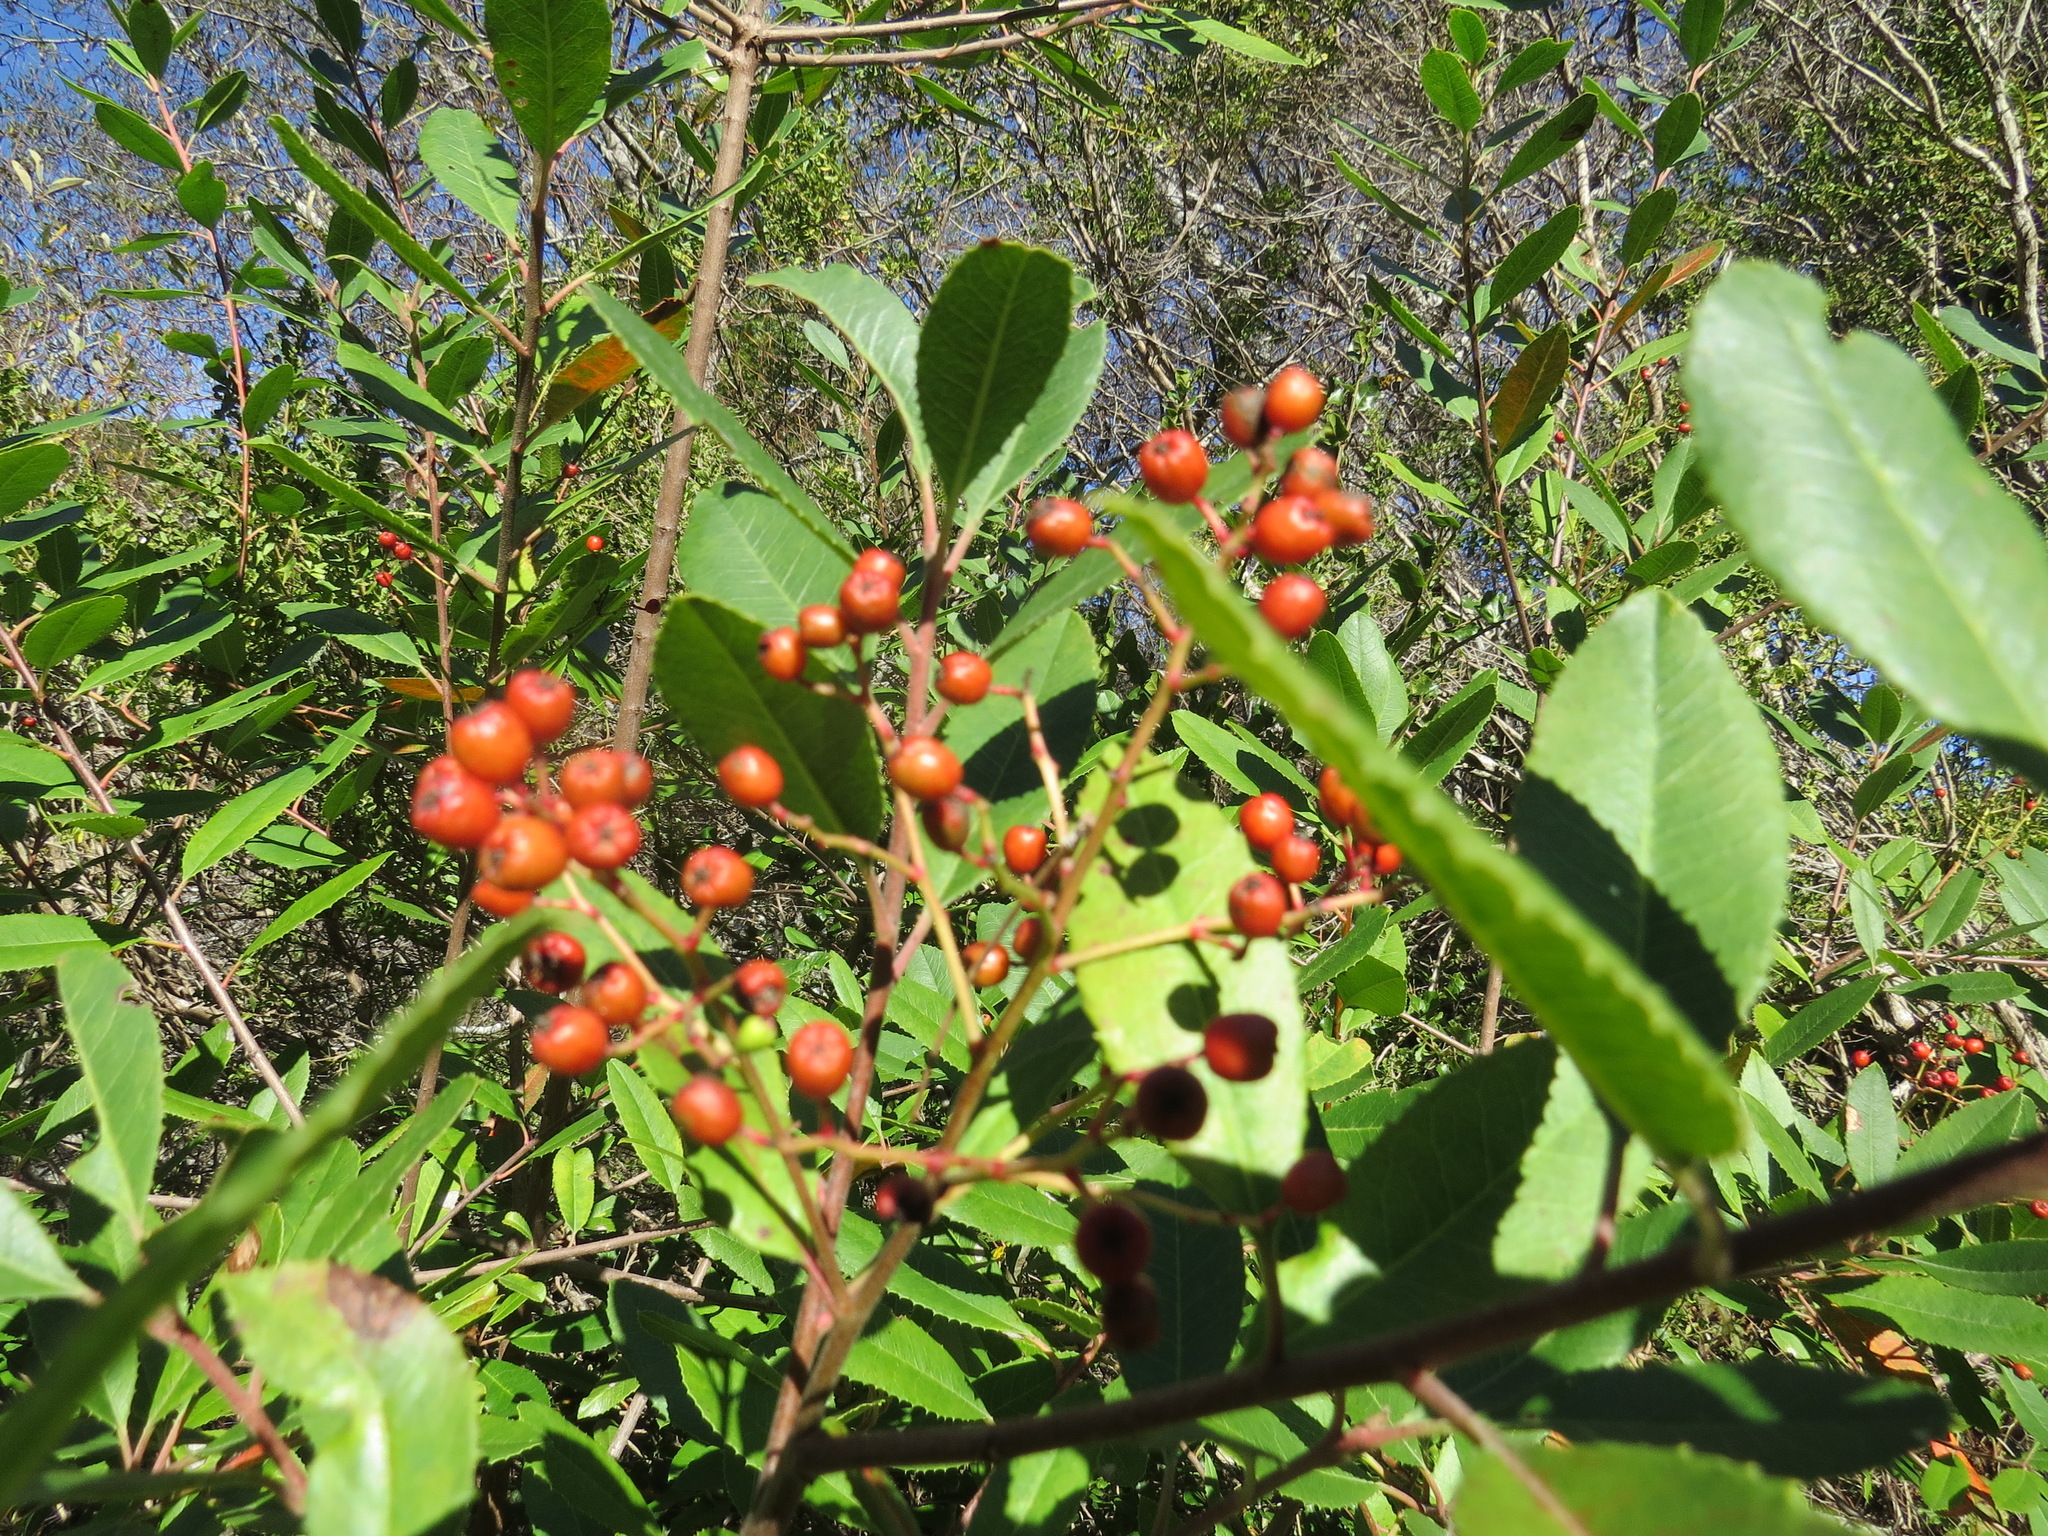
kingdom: Plantae
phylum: Tracheophyta
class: Magnoliopsida
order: Rosales
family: Rosaceae
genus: Heteromeles
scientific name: Heteromeles arbutifolia
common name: California-holly
